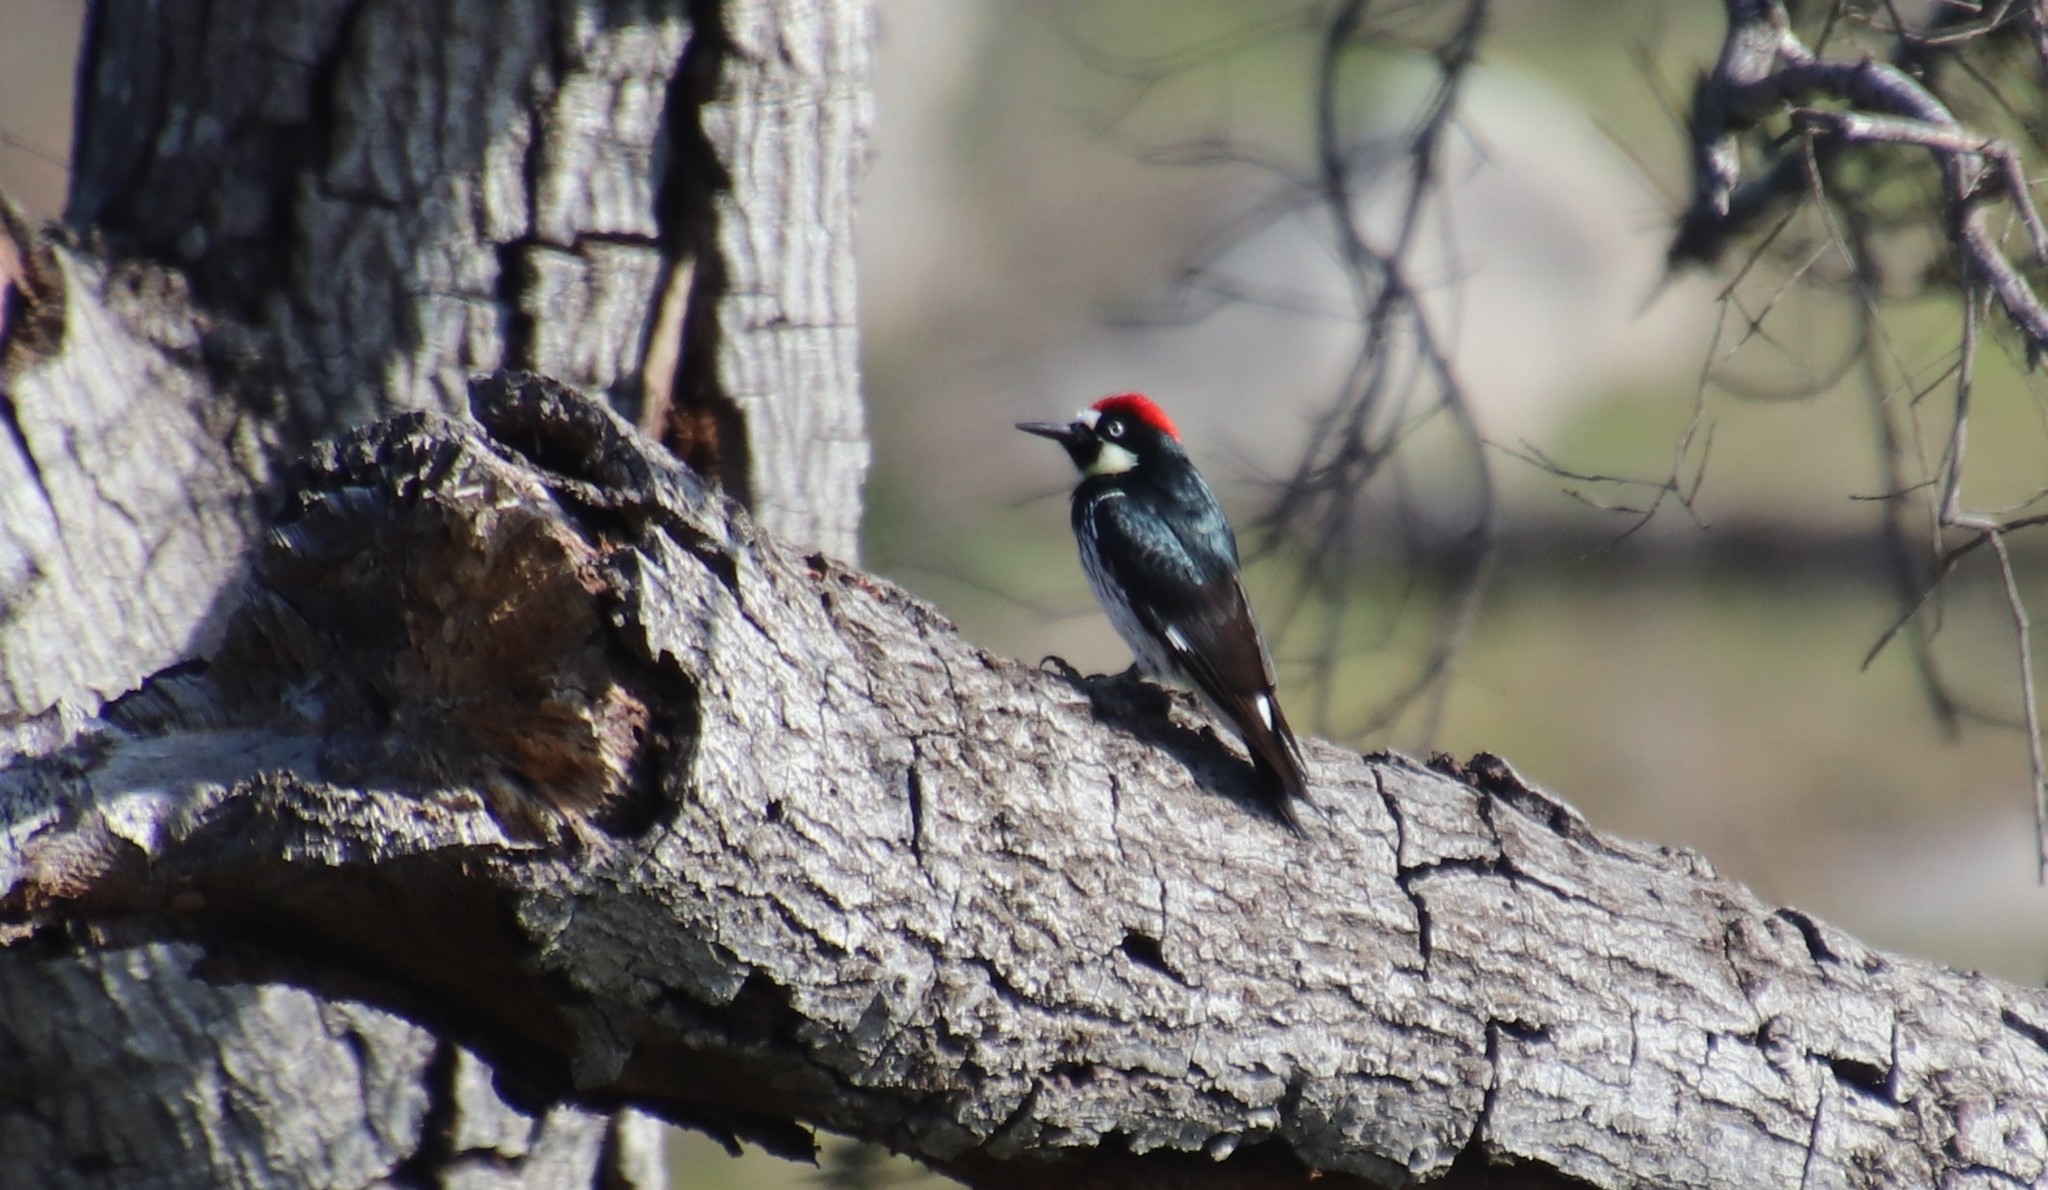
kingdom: Animalia
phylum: Chordata
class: Aves
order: Piciformes
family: Picidae
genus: Melanerpes
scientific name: Melanerpes formicivorus
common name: Acorn woodpecker
